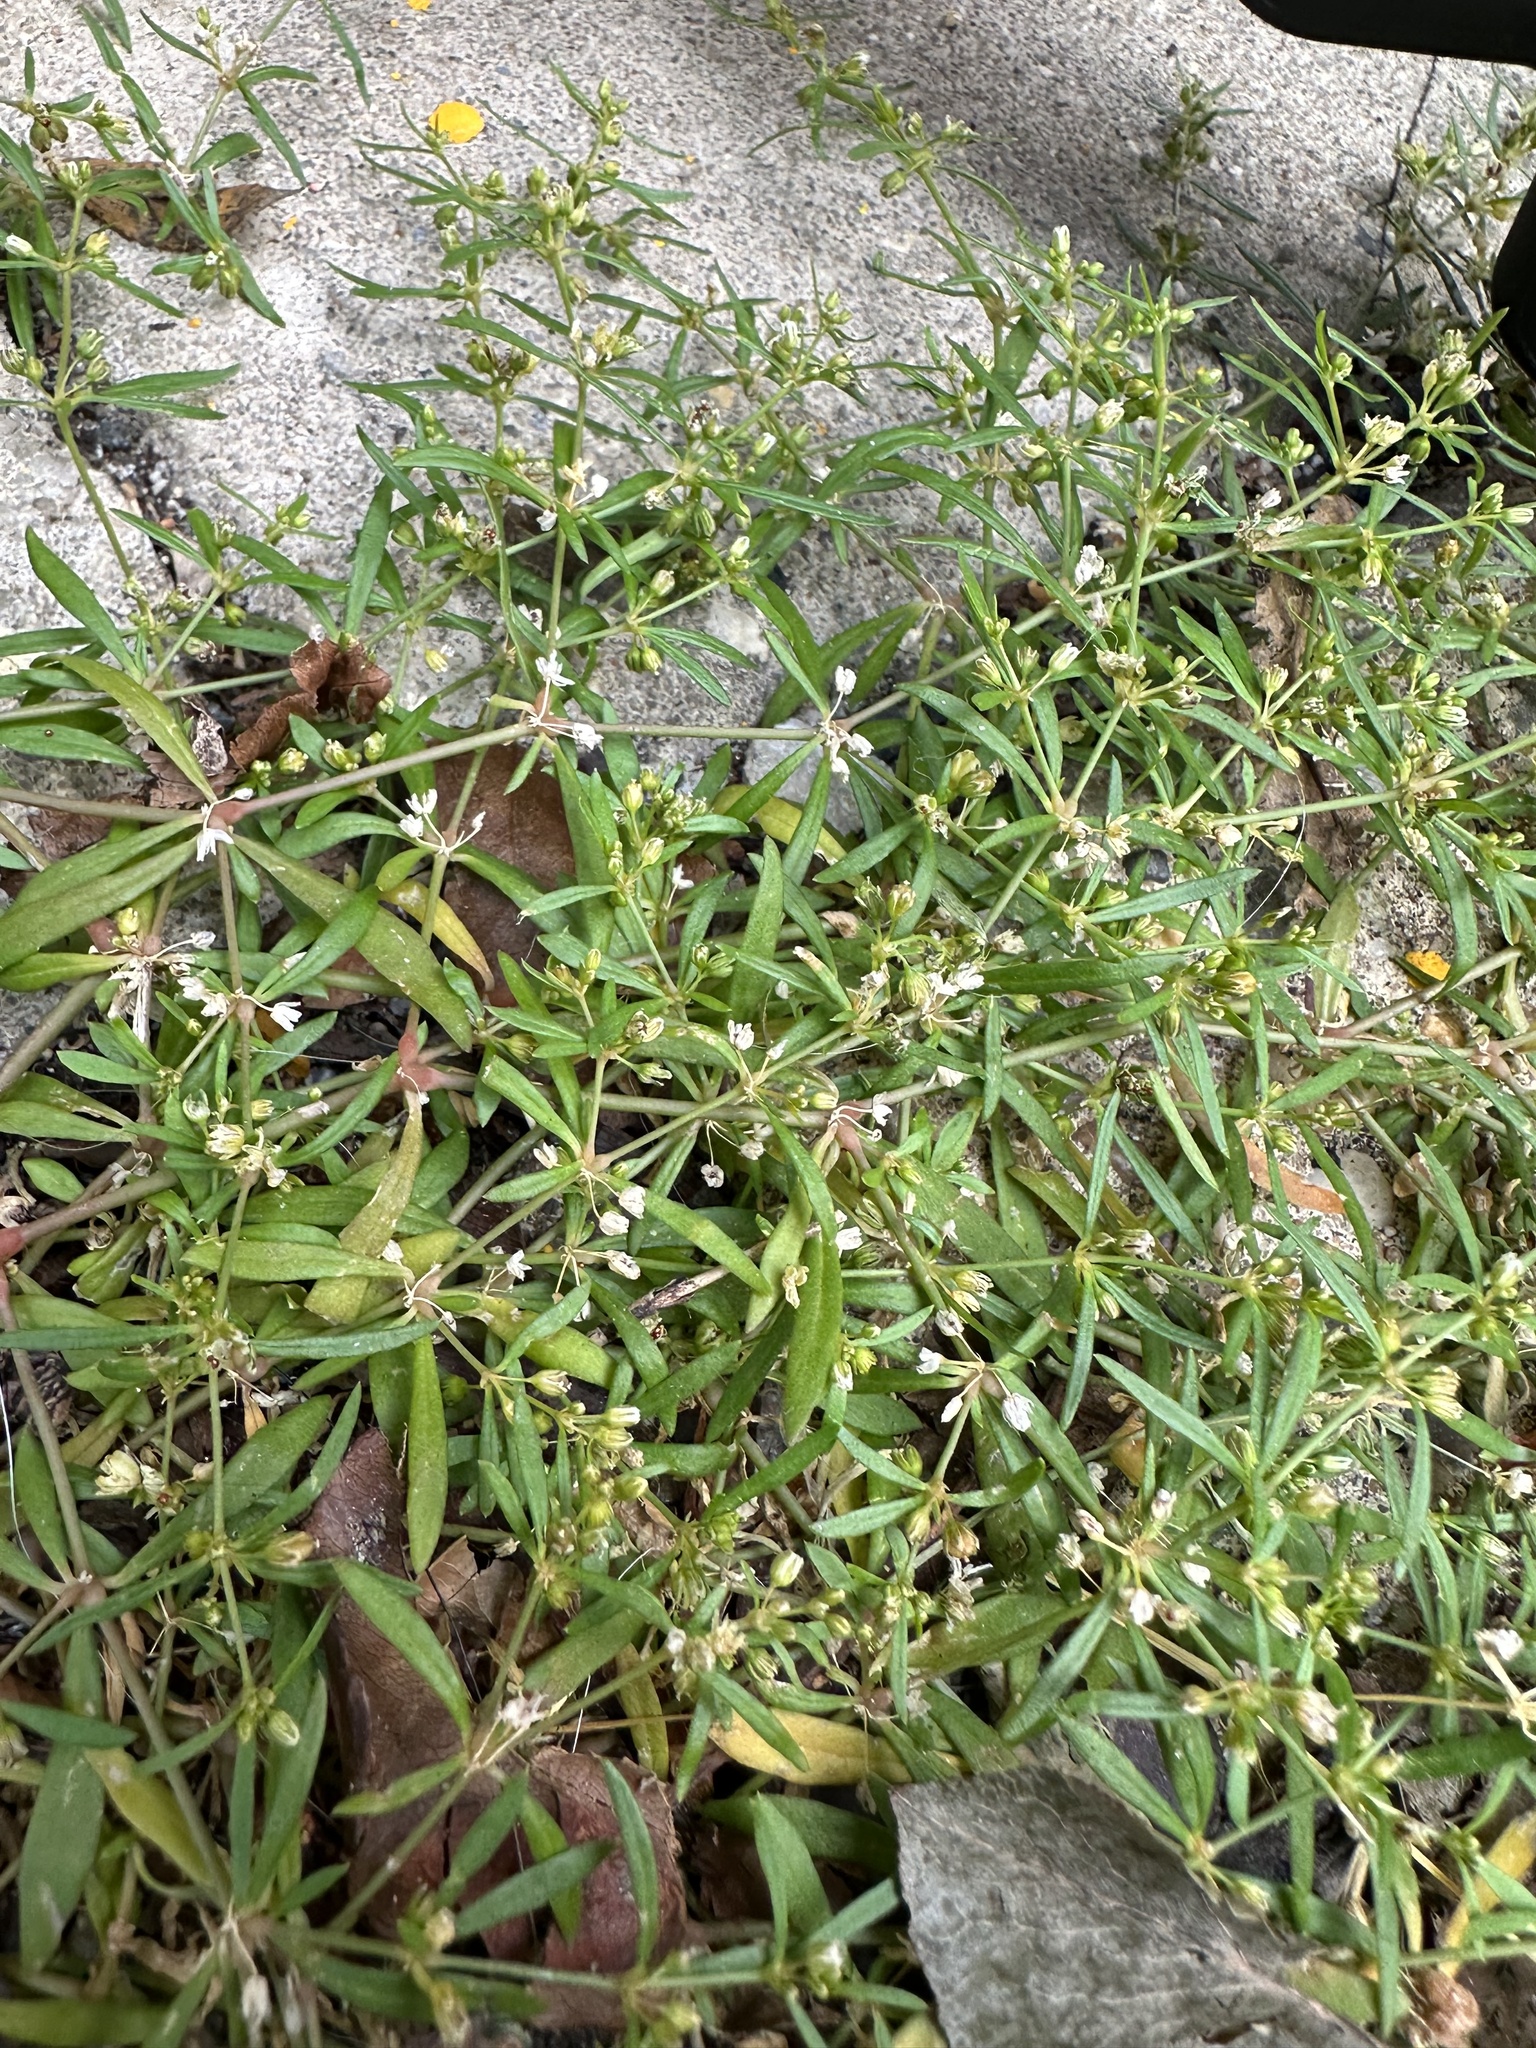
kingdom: Plantae
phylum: Tracheophyta
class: Magnoliopsida
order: Caryophyllales
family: Molluginaceae
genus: Mollugo
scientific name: Mollugo verticillata
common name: Green carpetweed
